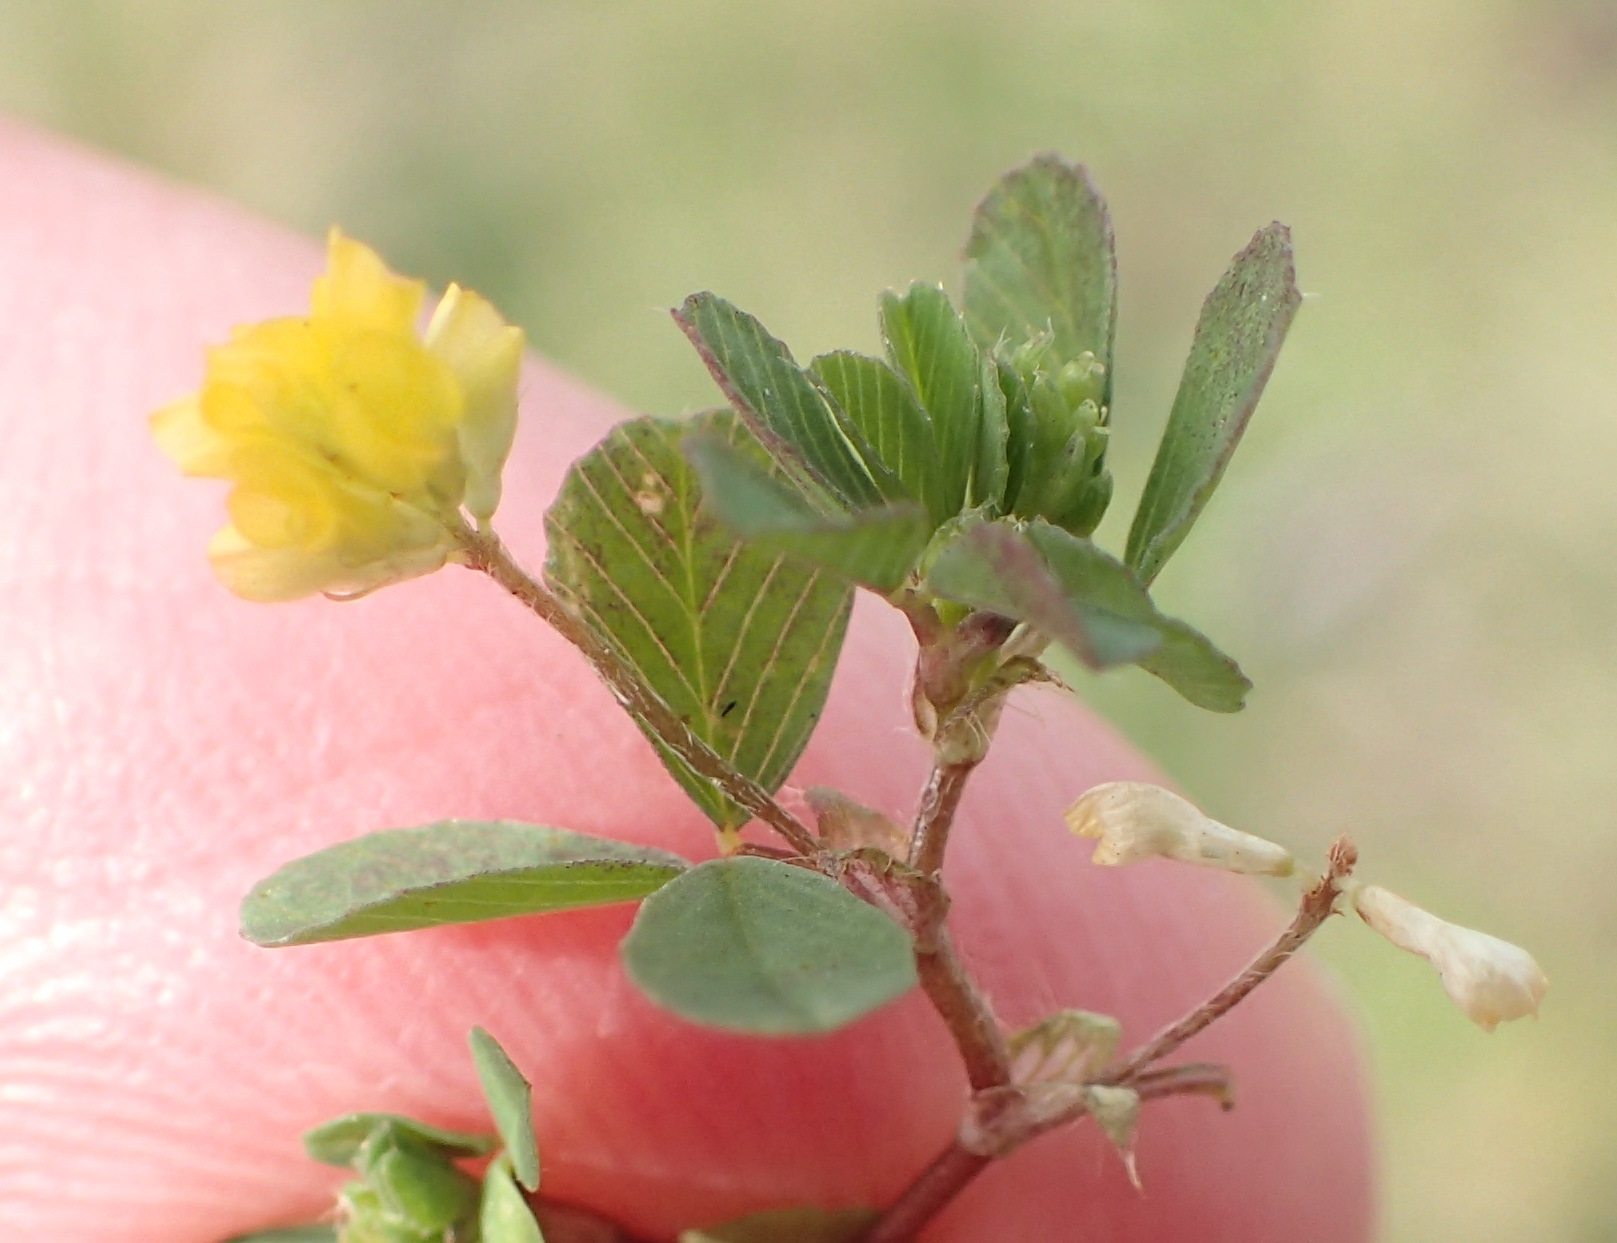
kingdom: Plantae
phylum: Tracheophyta
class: Magnoliopsida
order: Fabales
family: Fabaceae
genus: Trifolium
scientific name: Trifolium dubium
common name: Suckling clover
